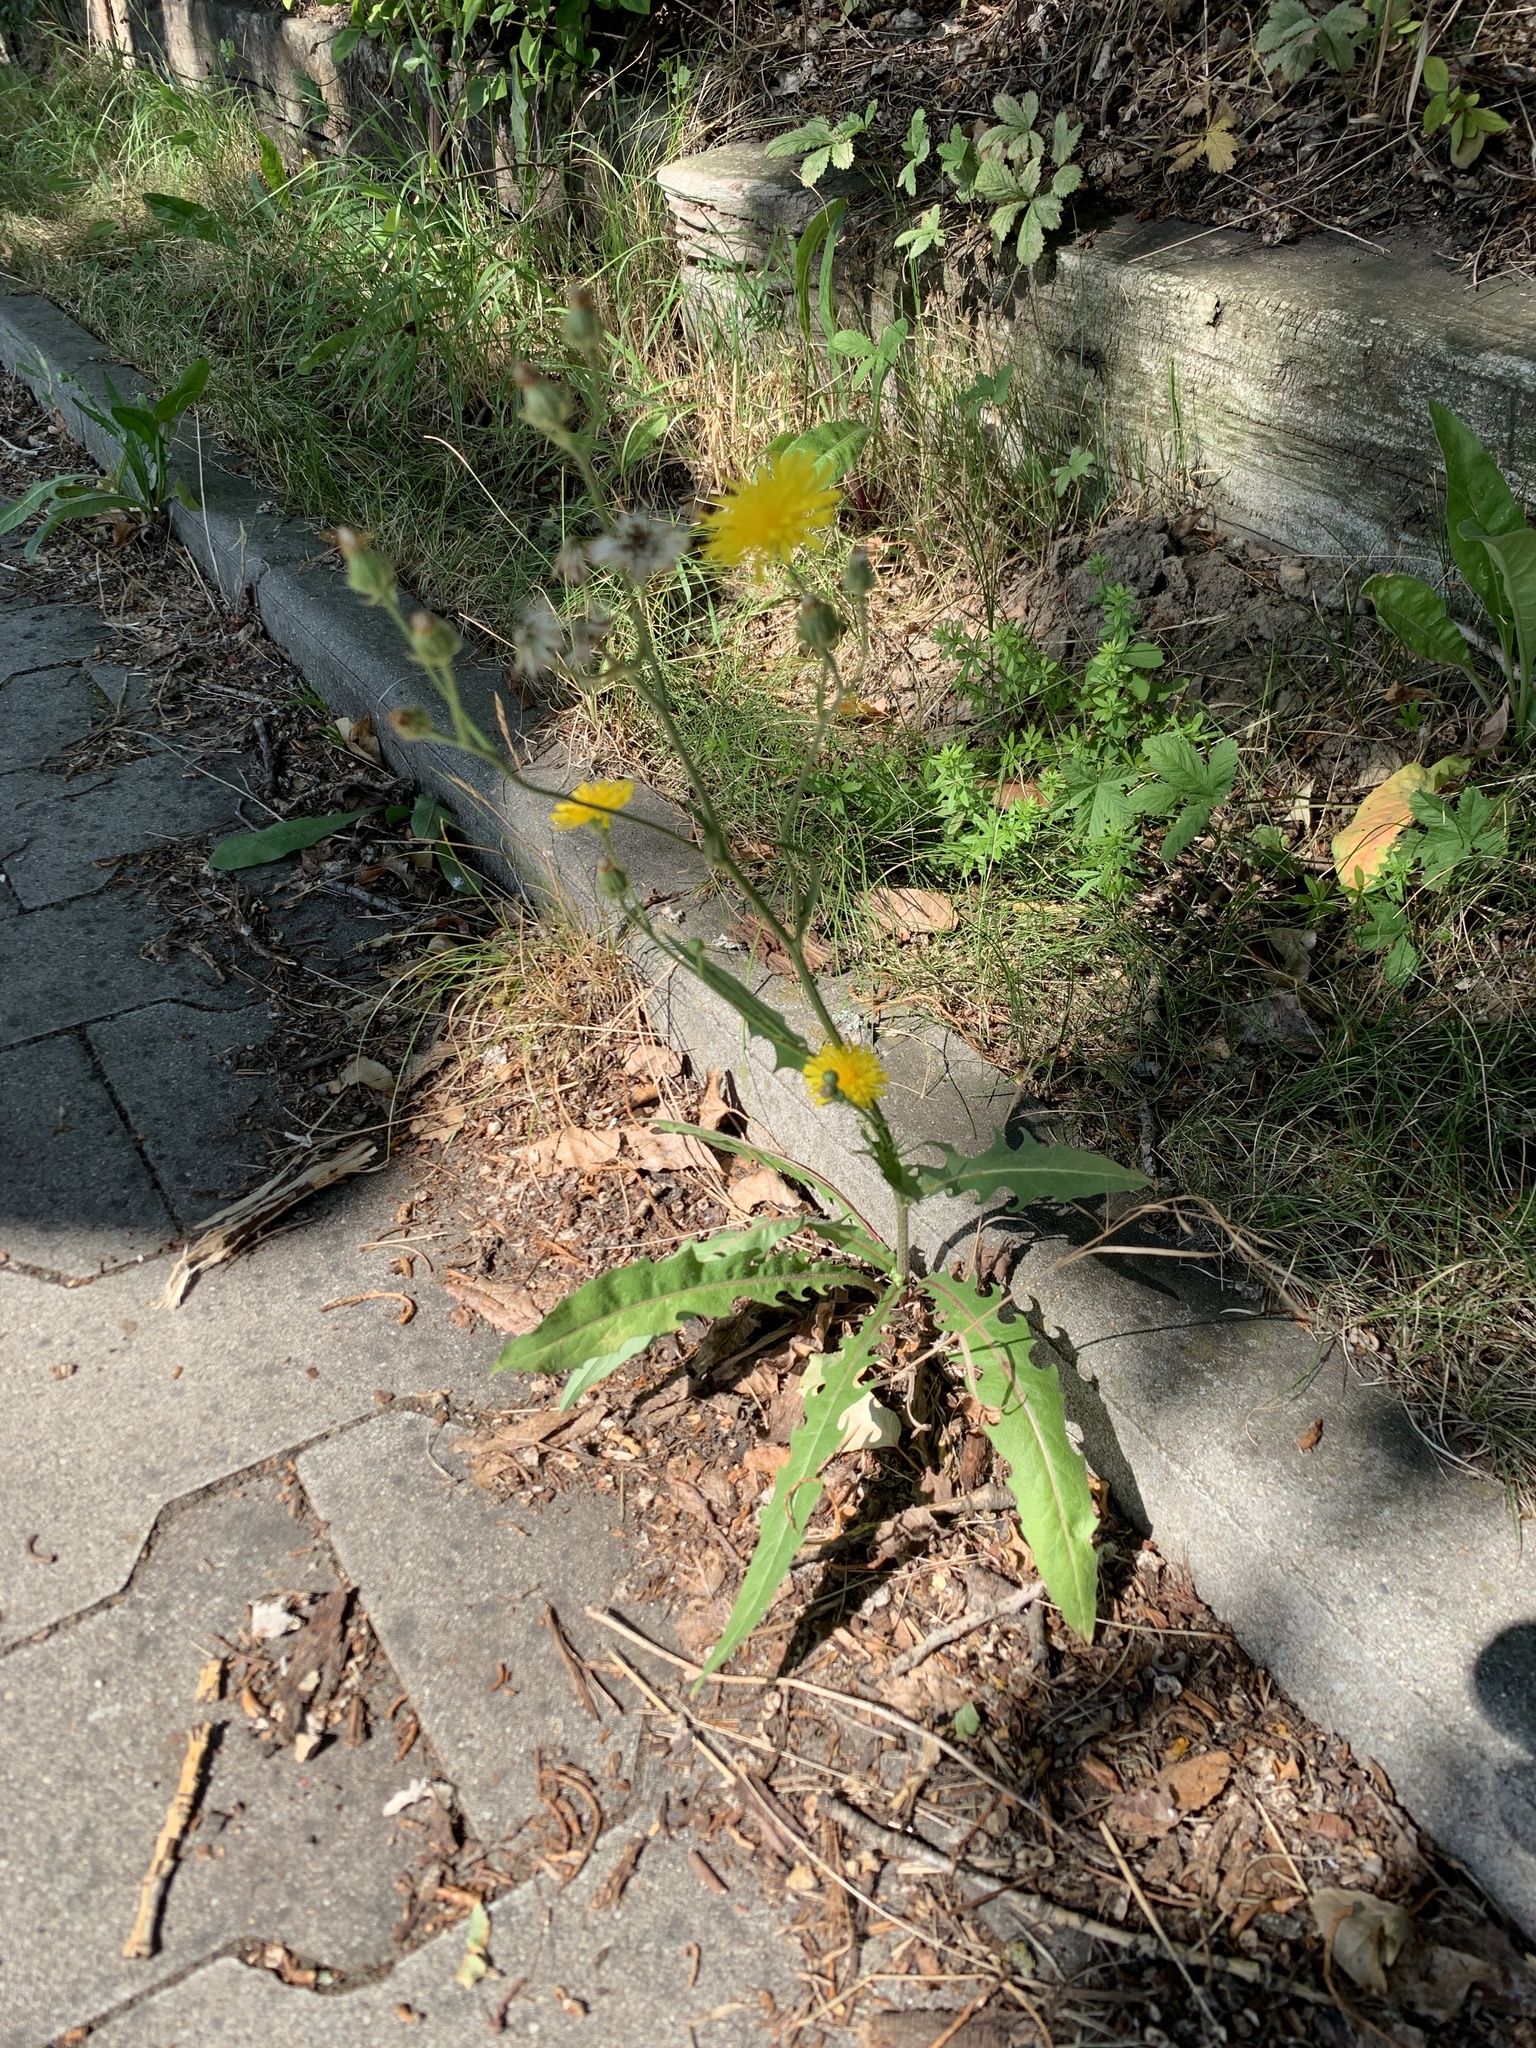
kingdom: Plantae
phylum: Tracheophyta
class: Magnoliopsida
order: Asterales
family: Asteraceae
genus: Crepis
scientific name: Crepis biennis
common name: Rough hawk's-beard
